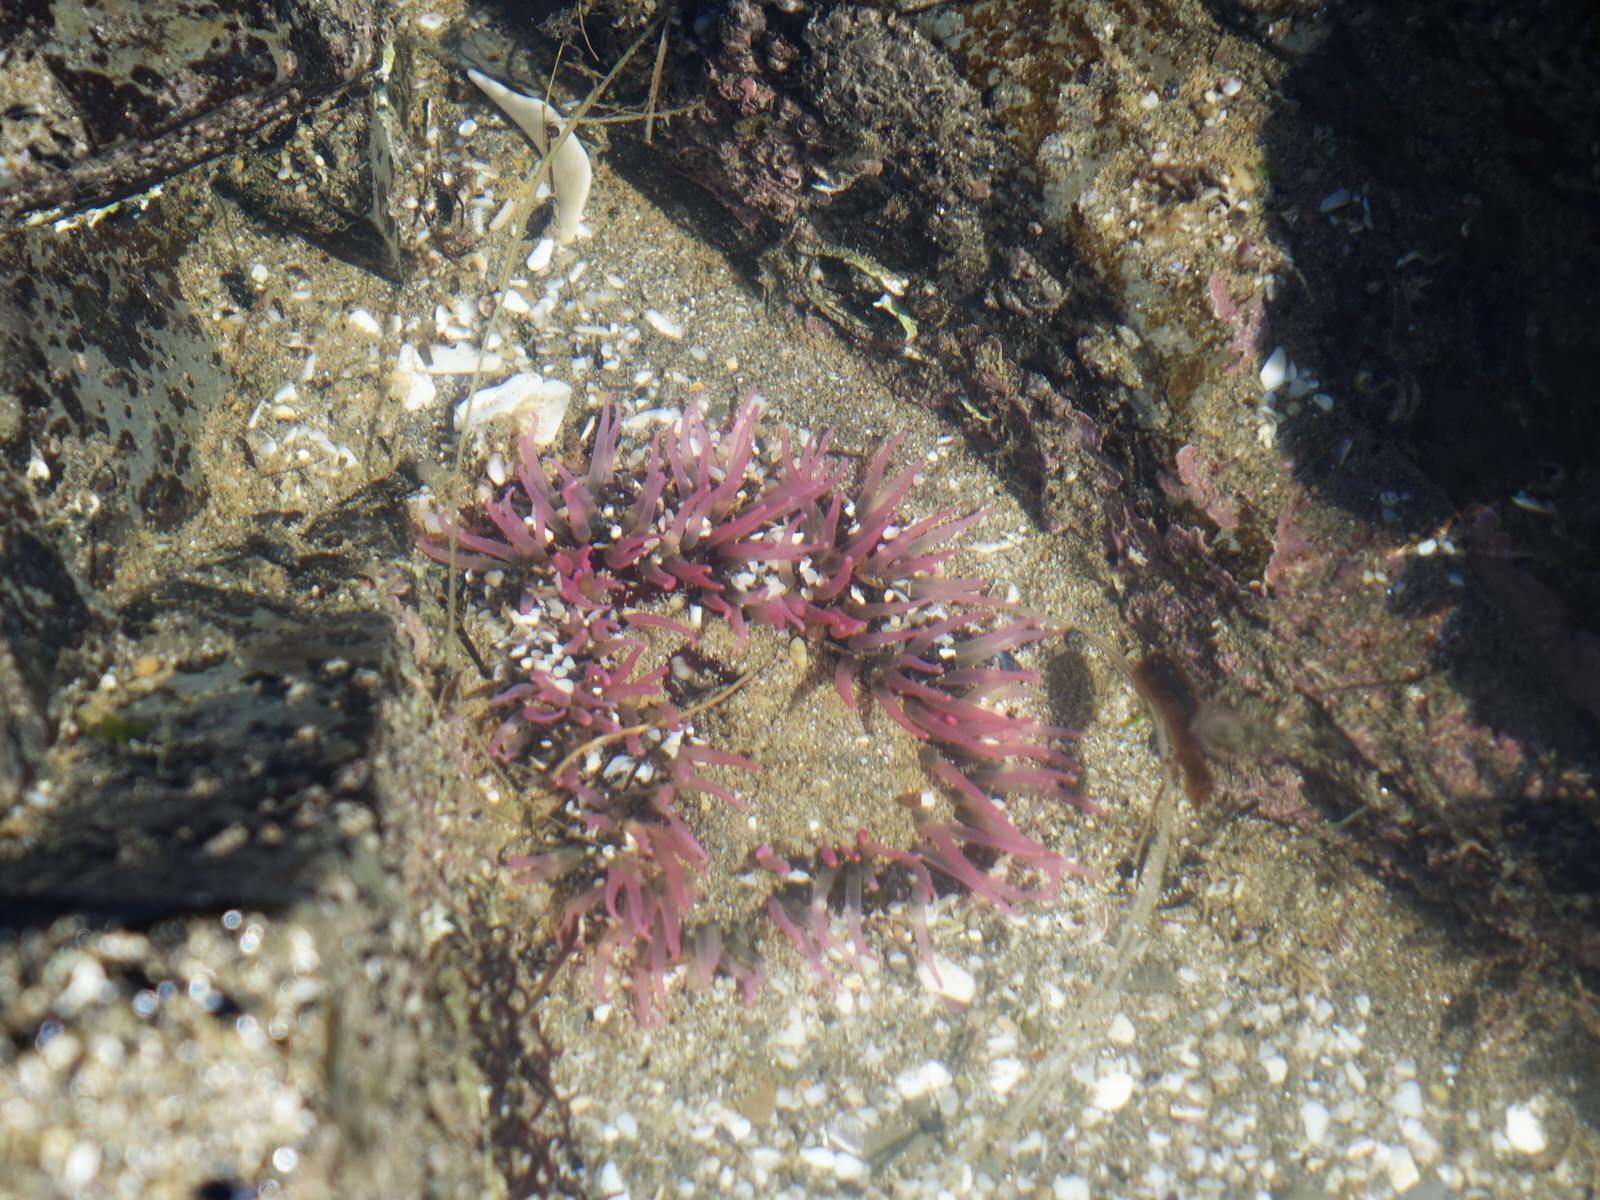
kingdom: Animalia
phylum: Cnidaria
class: Anthozoa
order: Actiniaria
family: Actiniidae
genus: Oulactis
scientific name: Oulactis magna
